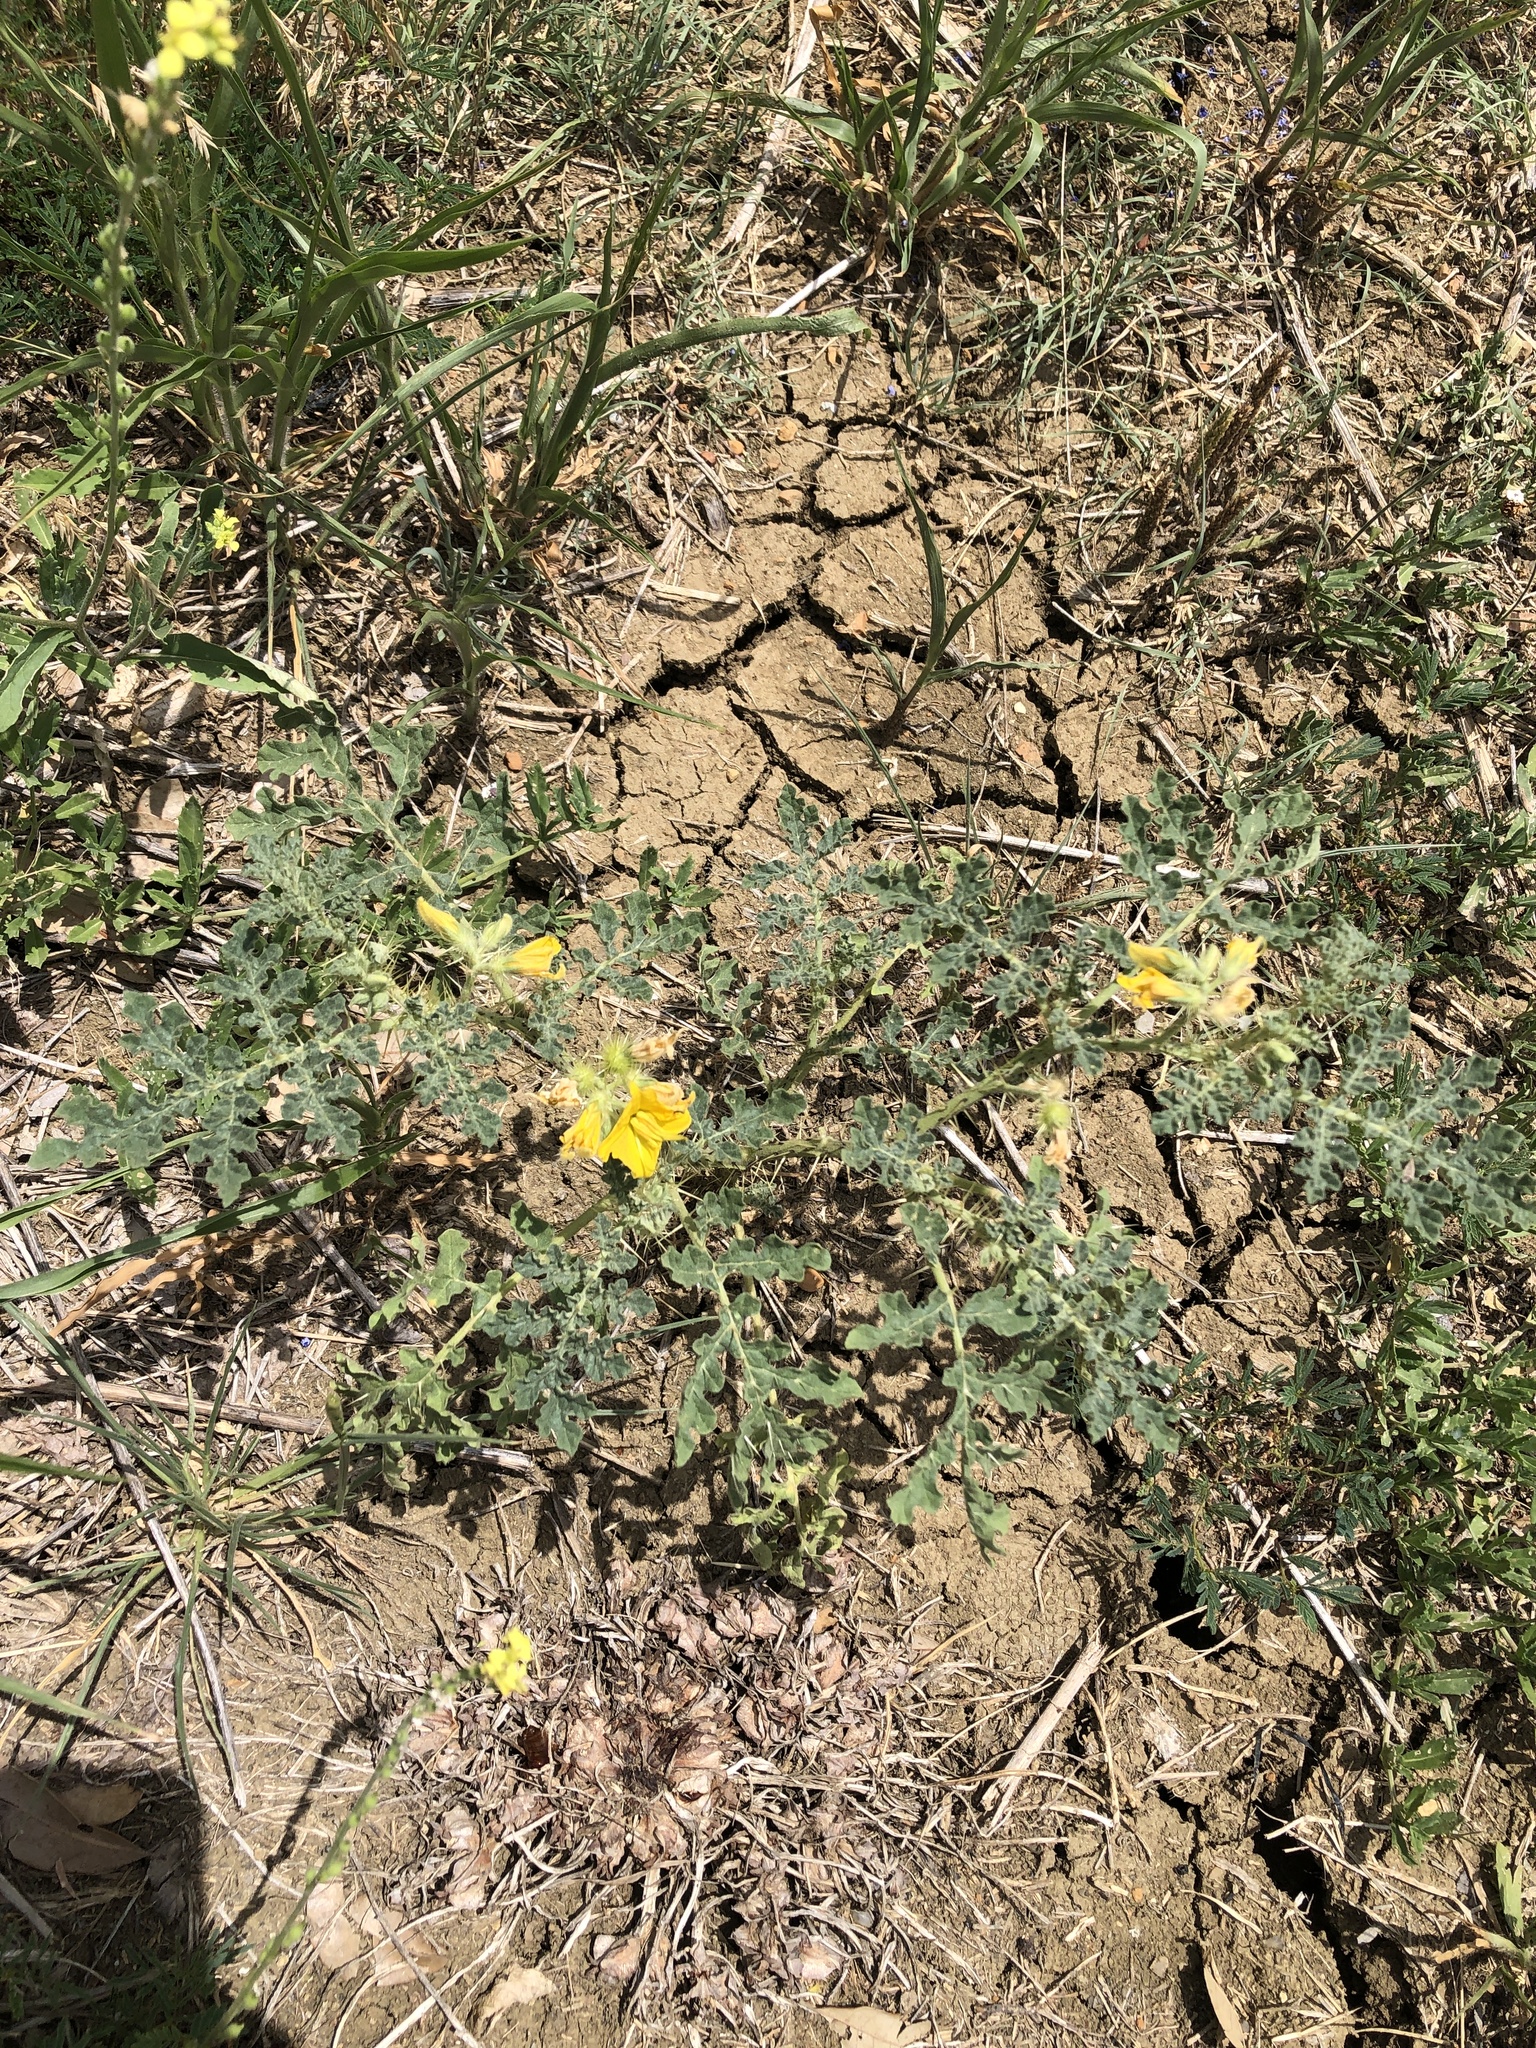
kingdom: Plantae
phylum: Tracheophyta
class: Magnoliopsida
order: Solanales
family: Solanaceae
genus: Solanum
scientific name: Solanum angustifolium
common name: Buffalobur nightshade
